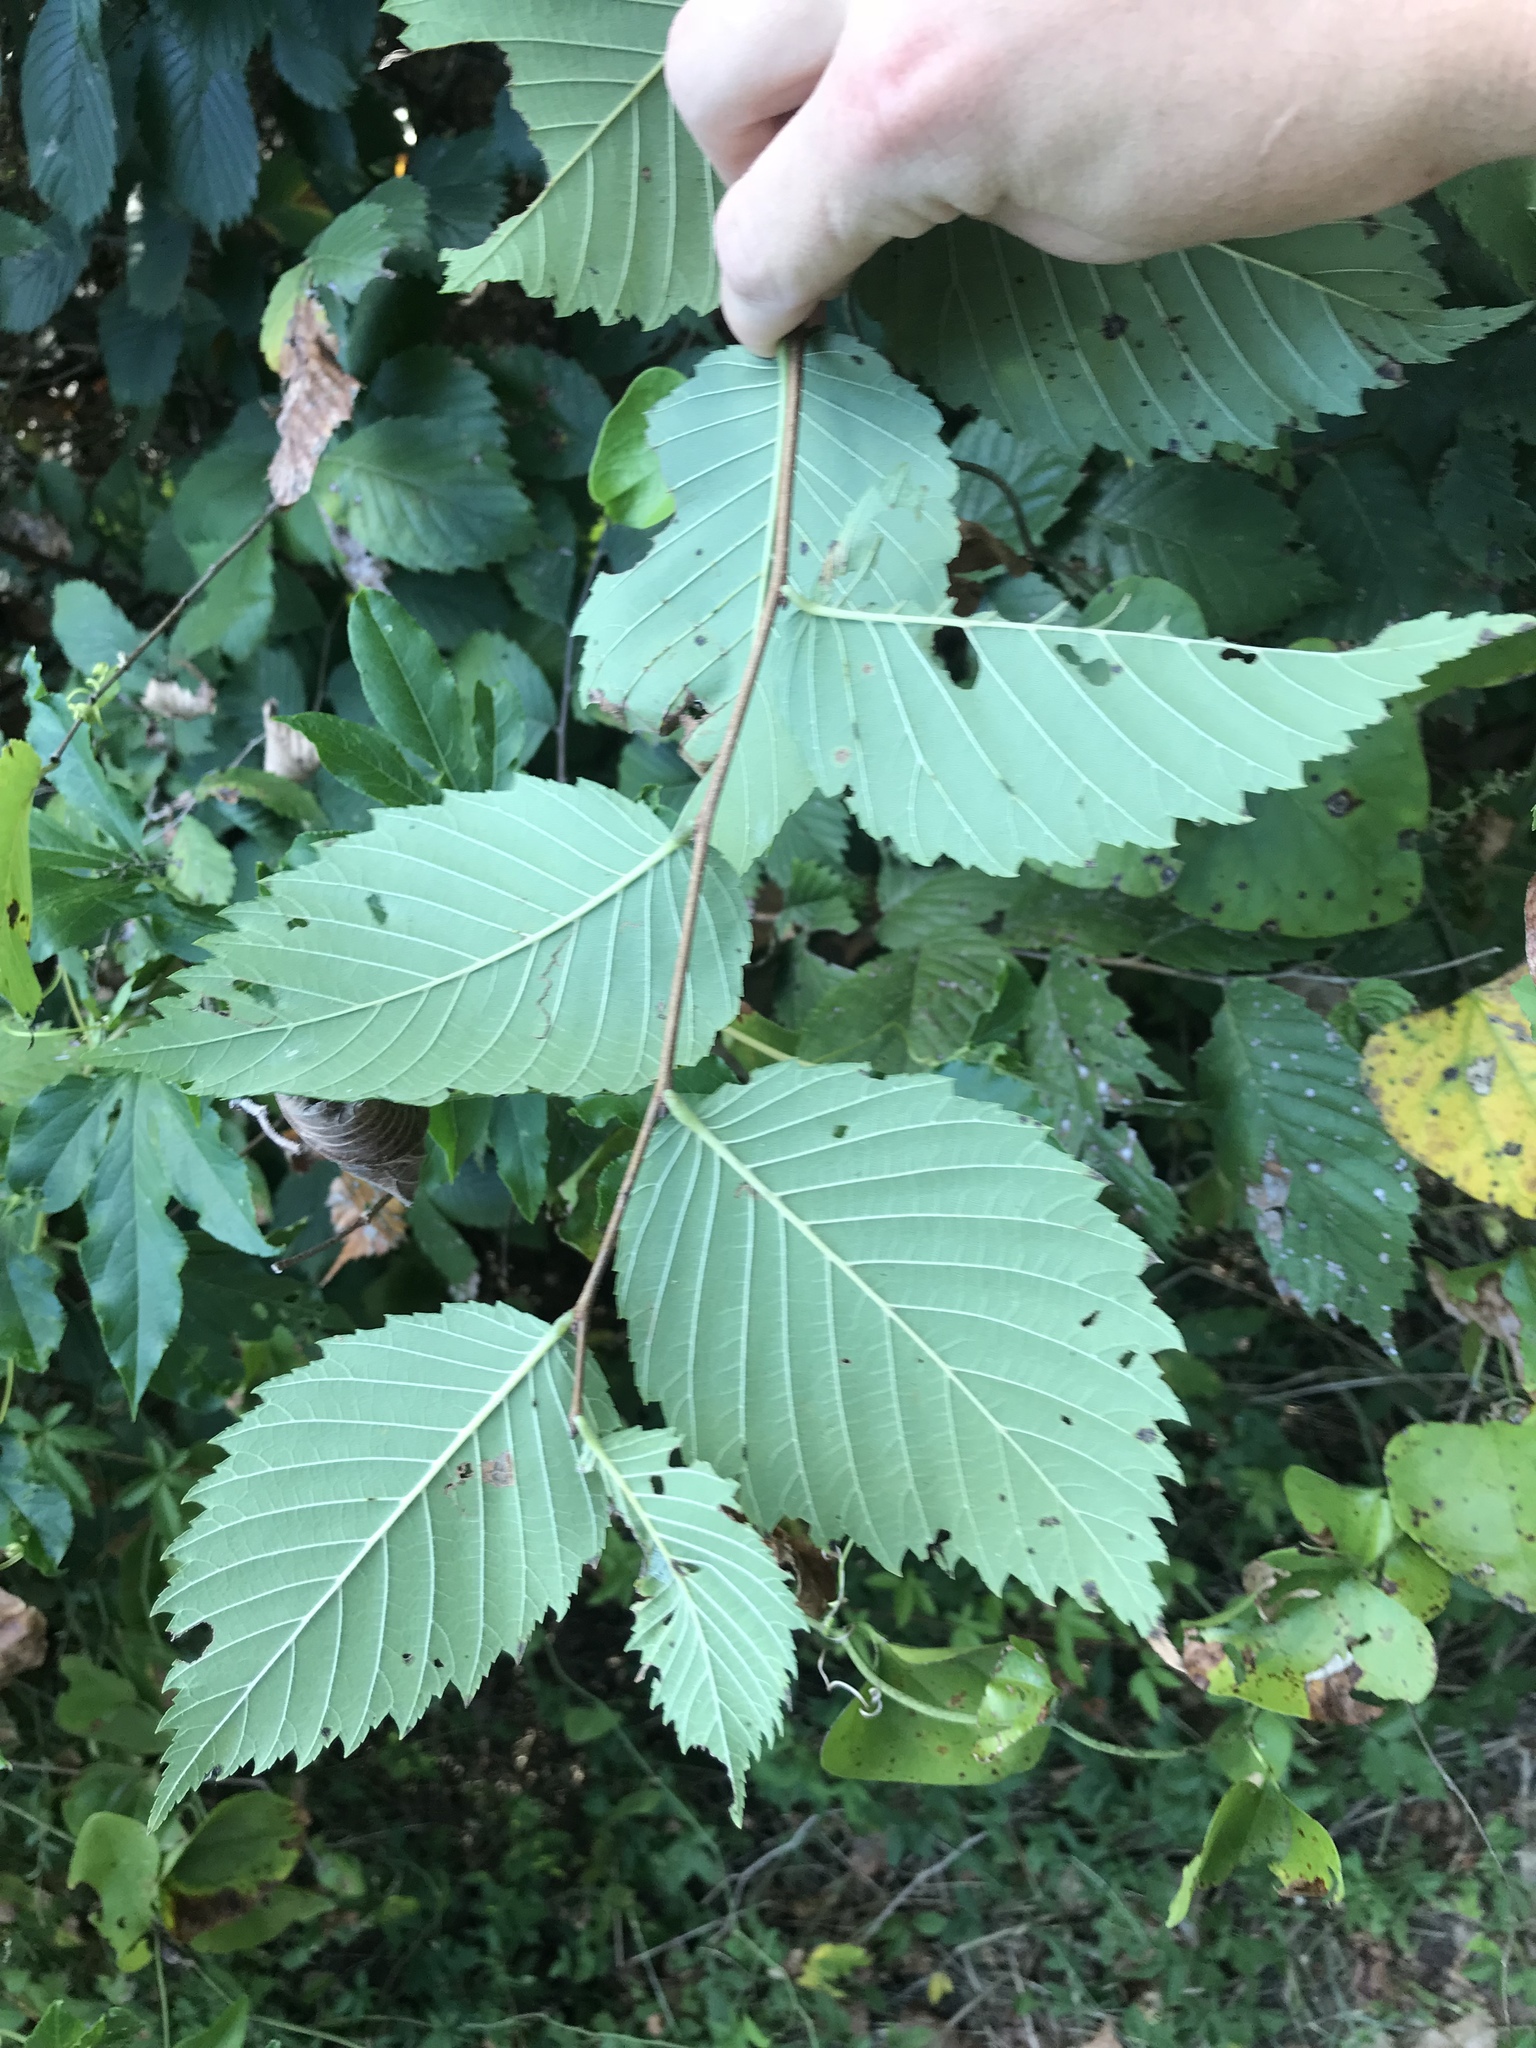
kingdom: Plantae
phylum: Tracheophyta
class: Magnoliopsida
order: Rosales
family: Ulmaceae
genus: Ulmus
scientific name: Ulmus americana
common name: American elm
